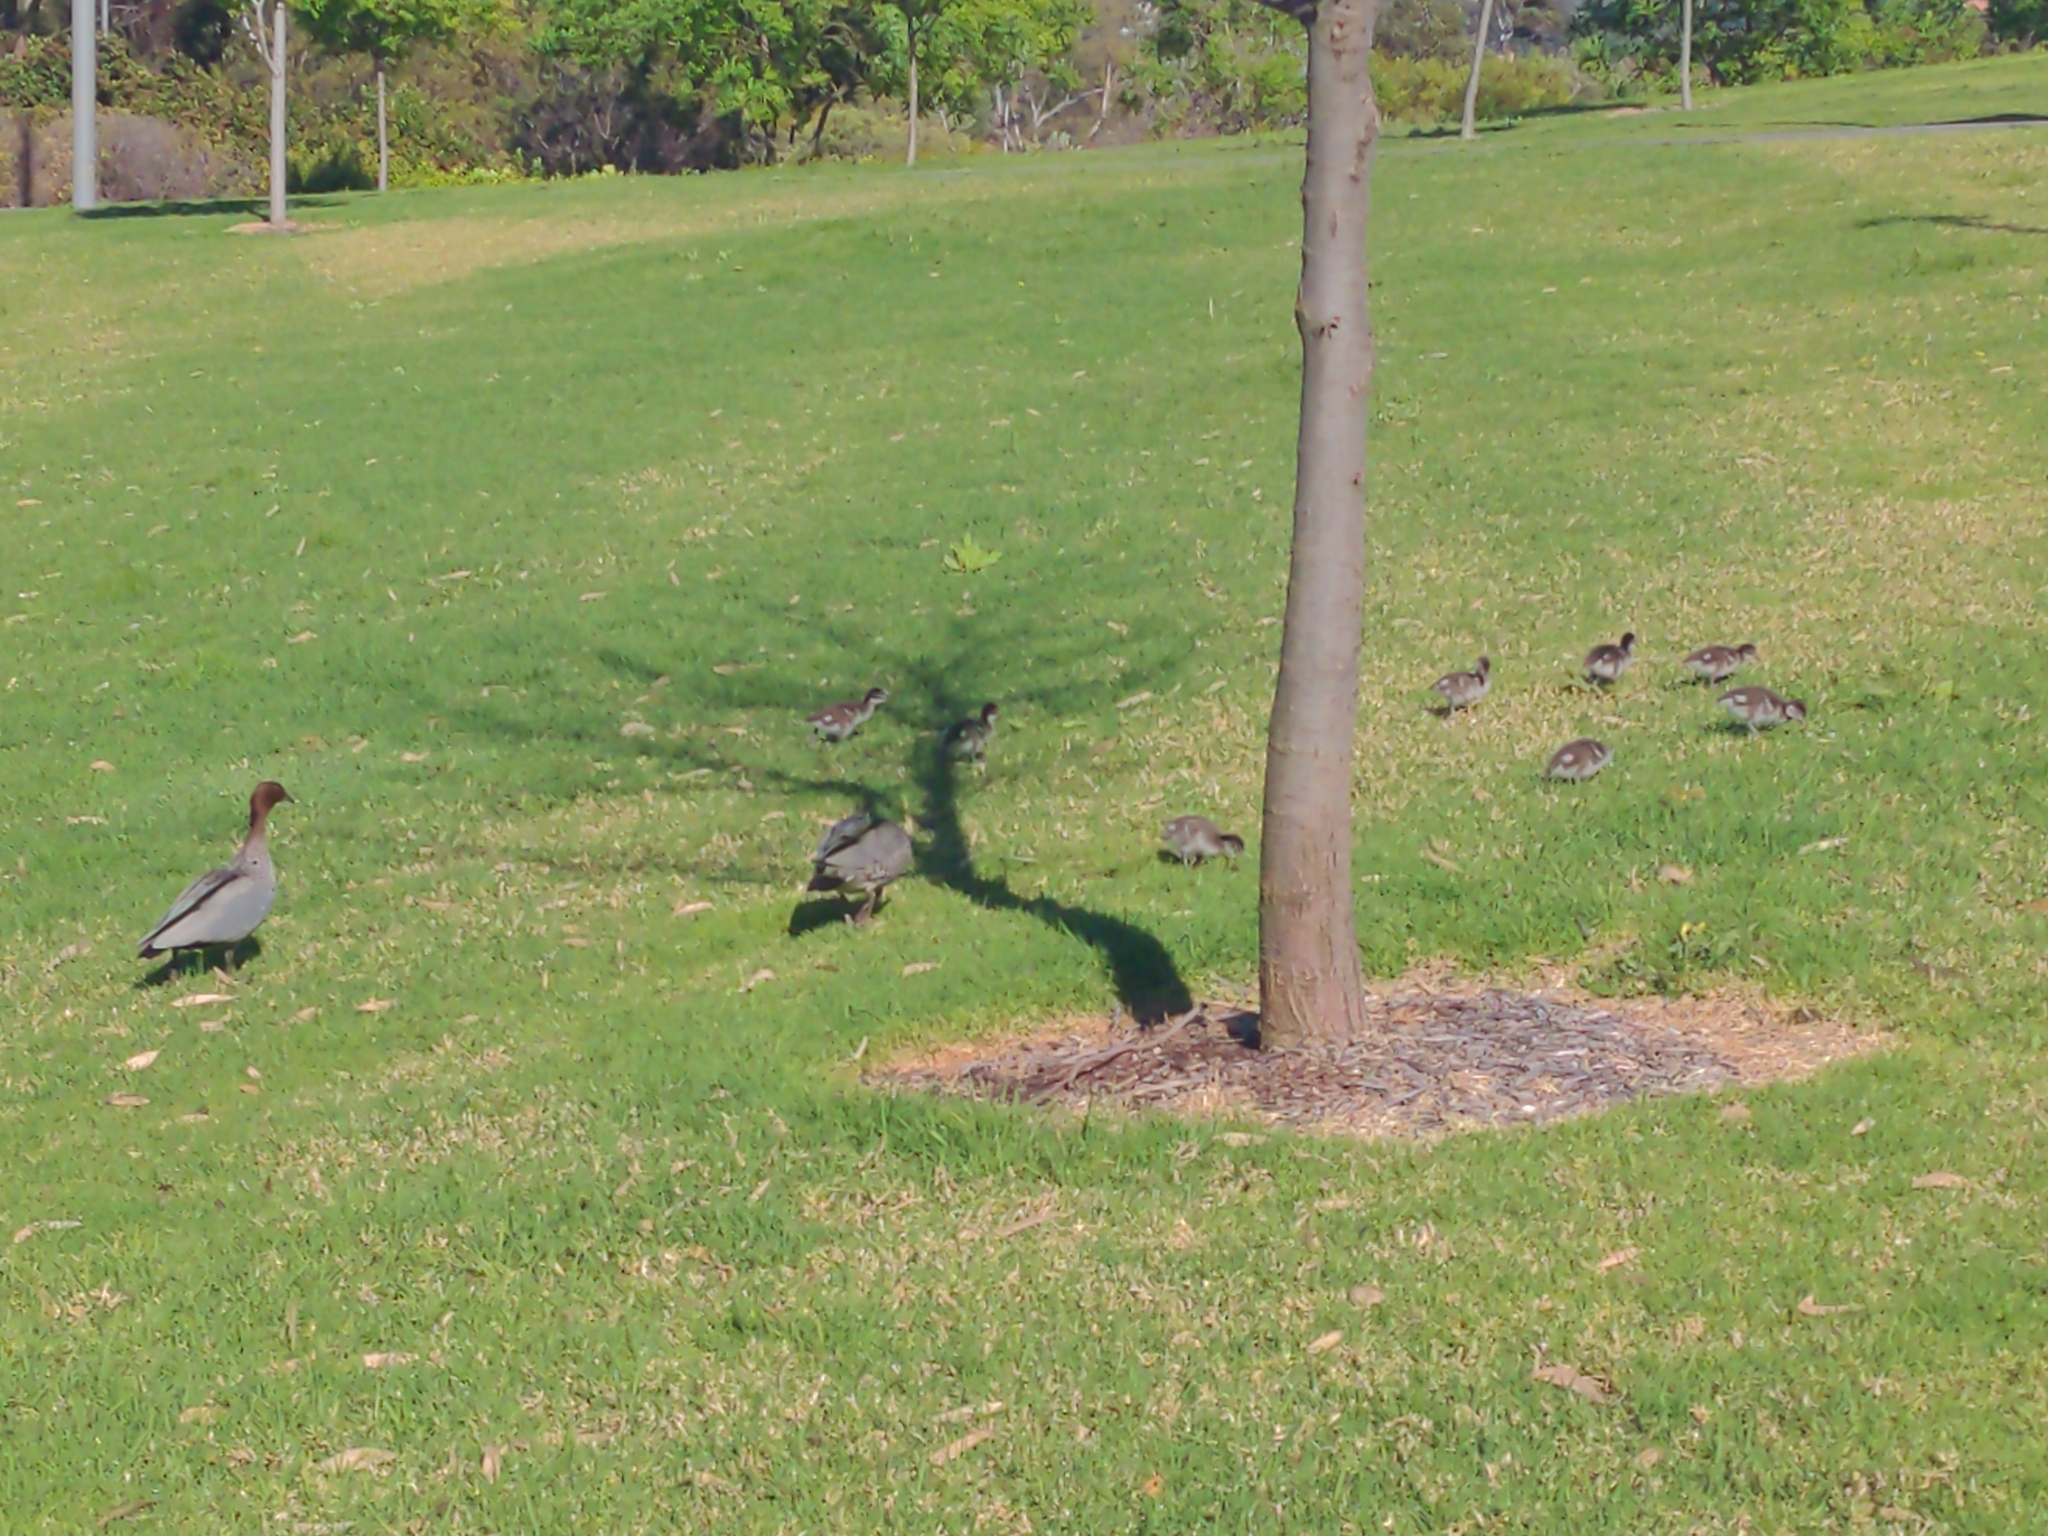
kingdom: Animalia
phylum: Chordata
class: Aves
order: Anseriformes
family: Anatidae
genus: Chenonetta
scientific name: Chenonetta jubata
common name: Maned duck
